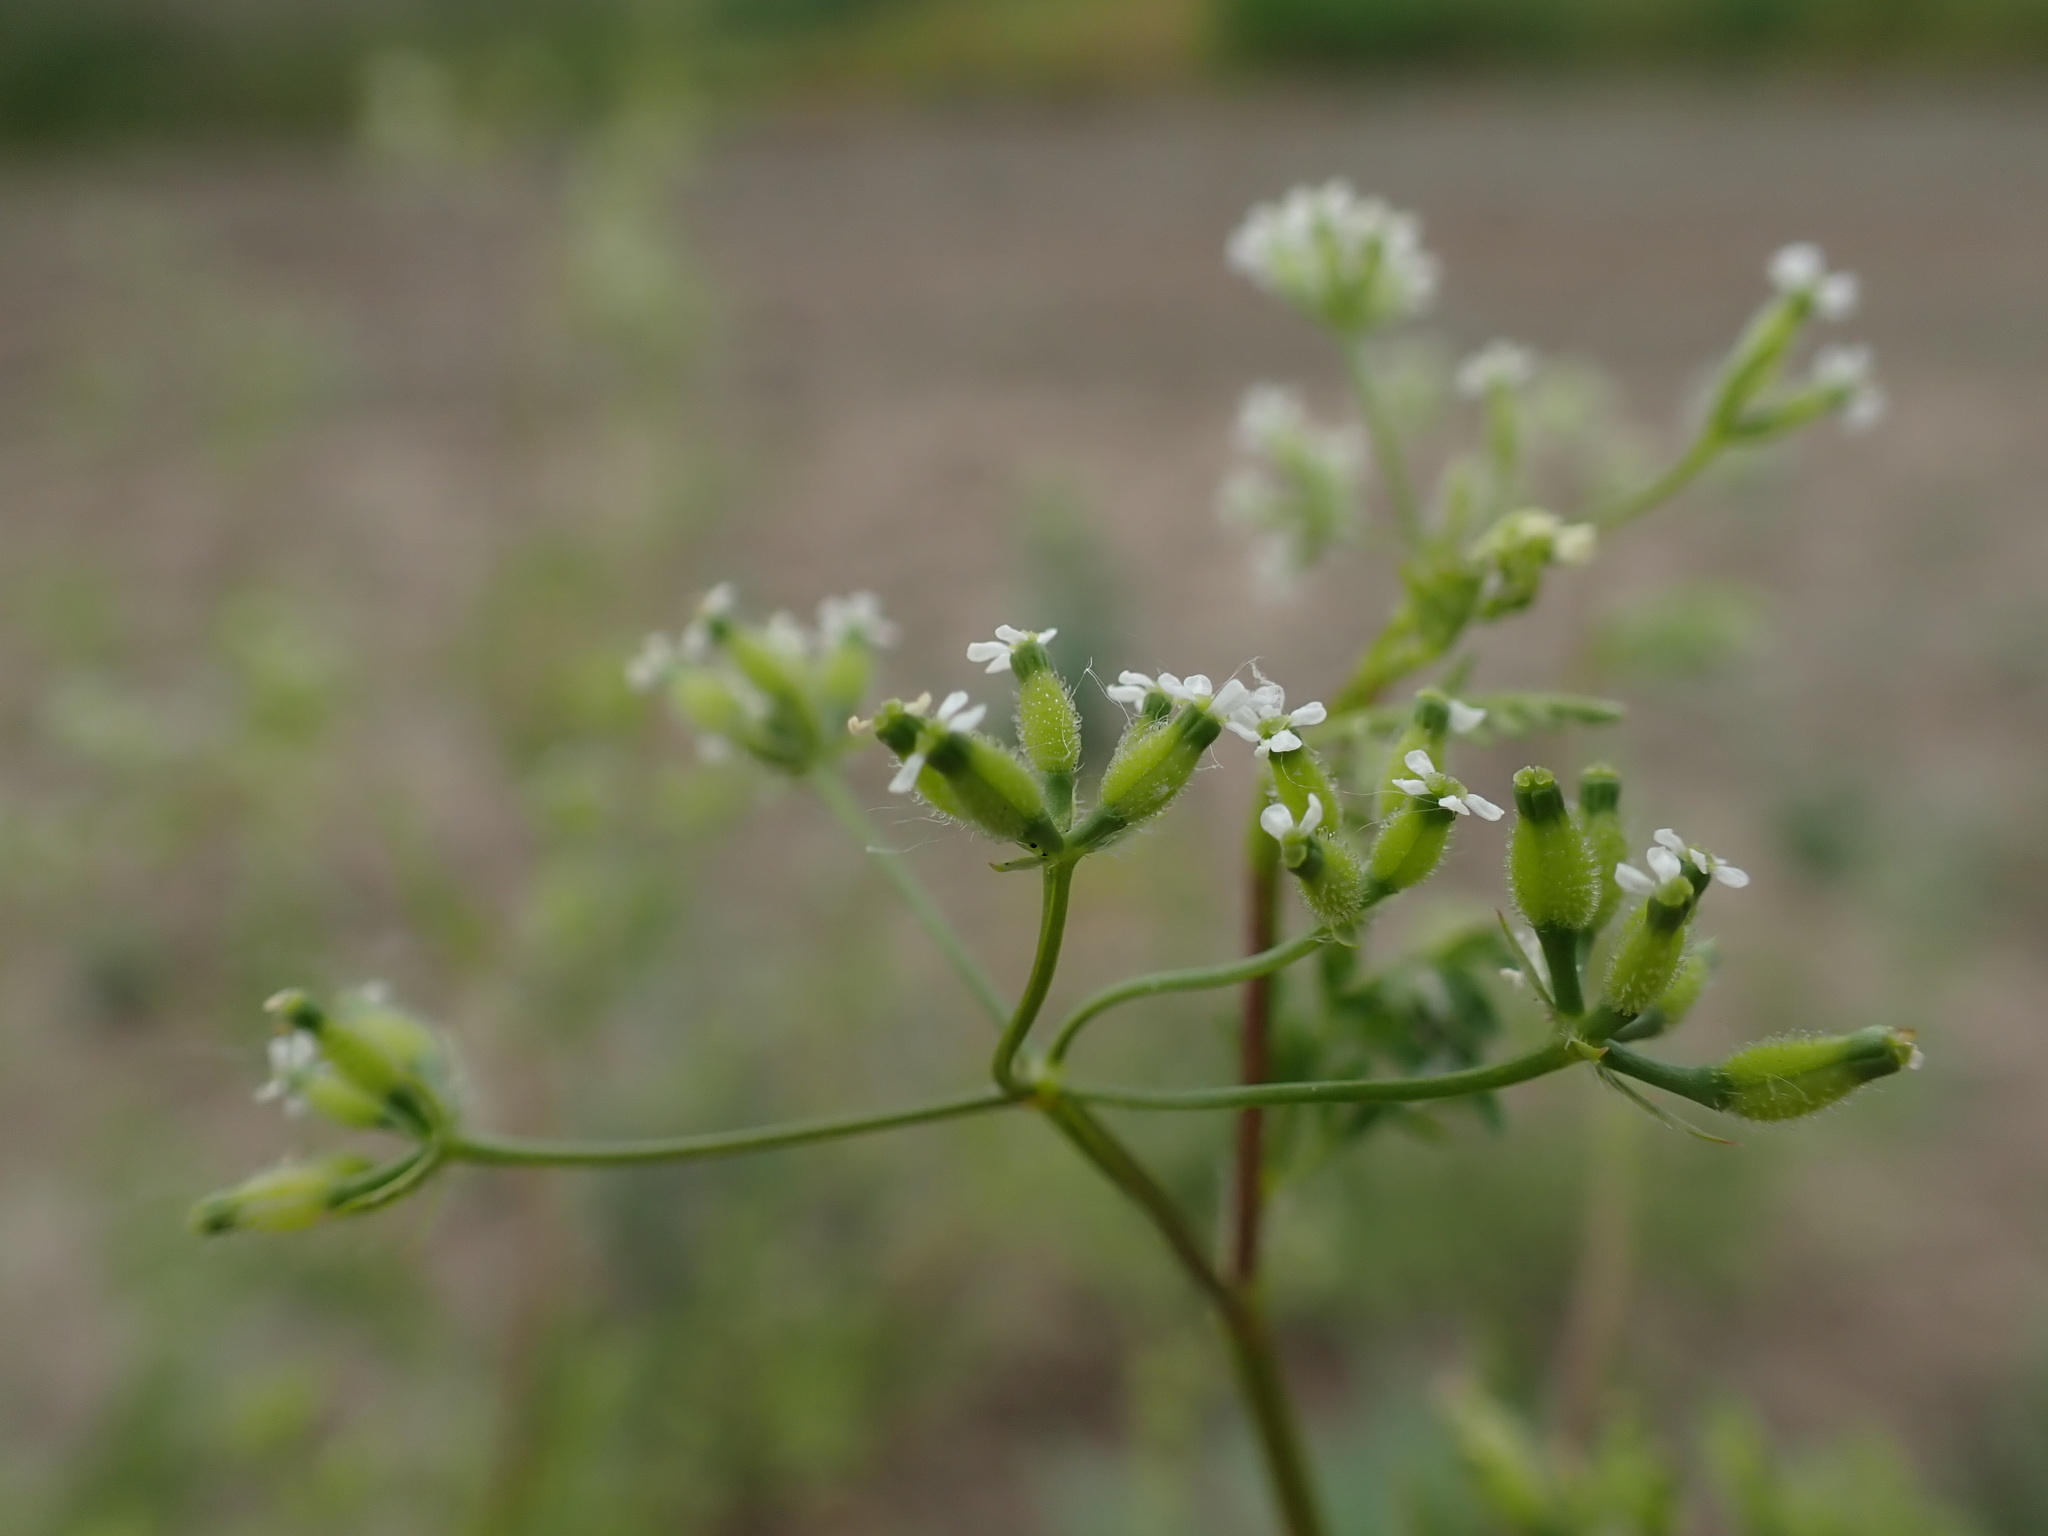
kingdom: Plantae
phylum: Tracheophyta
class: Magnoliopsida
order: Apiales
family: Apiaceae
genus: Anthriscus
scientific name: Anthriscus caucalis
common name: Bur chervil
